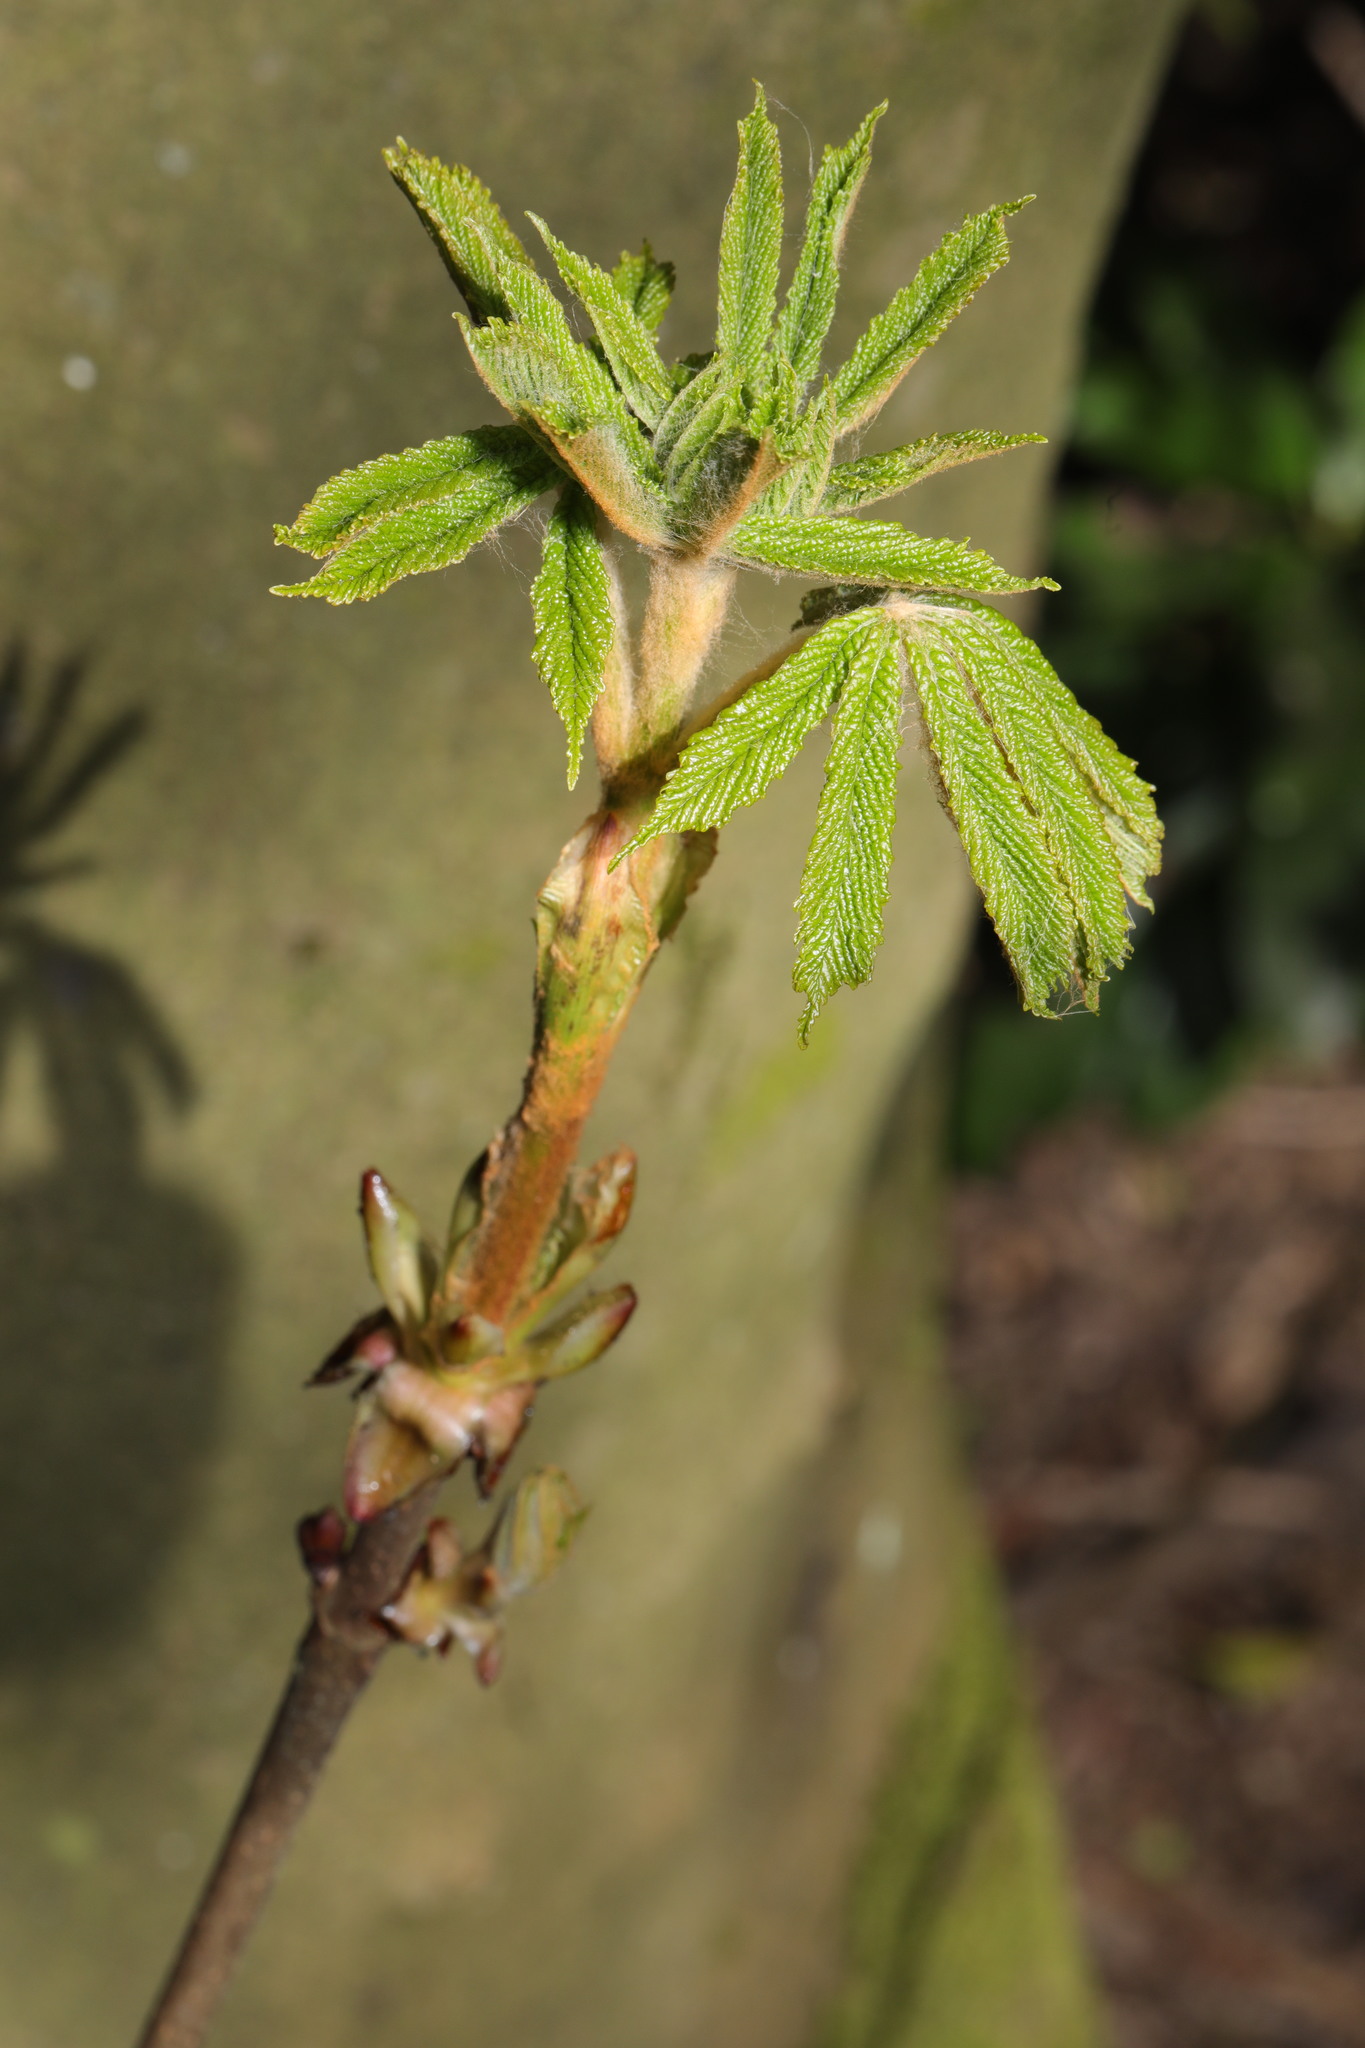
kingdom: Plantae
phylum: Tracheophyta
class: Magnoliopsida
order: Sapindales
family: Sapindaceae
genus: Aesculus
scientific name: Aesculus hippocastanum
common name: Horse-chestnut
